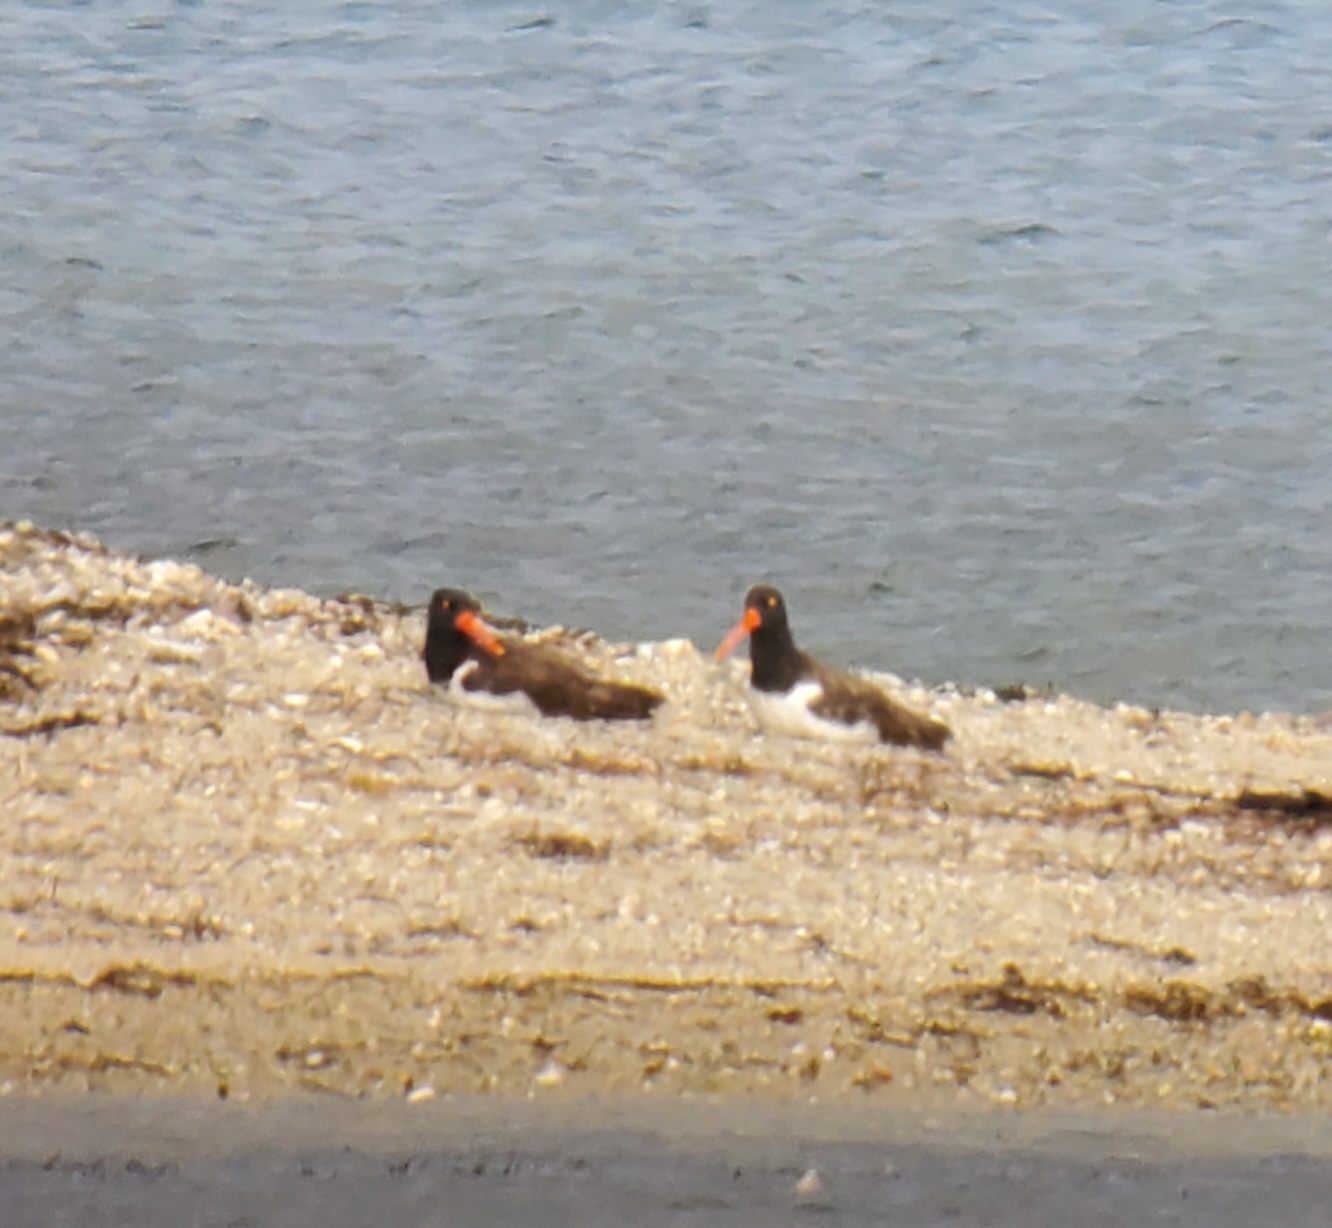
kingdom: Animalia
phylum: Chordata
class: Aves
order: Charadriiformes
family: Haematopodidae
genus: Haematopus
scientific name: Haematopus palliatus
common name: American oystercatcher
